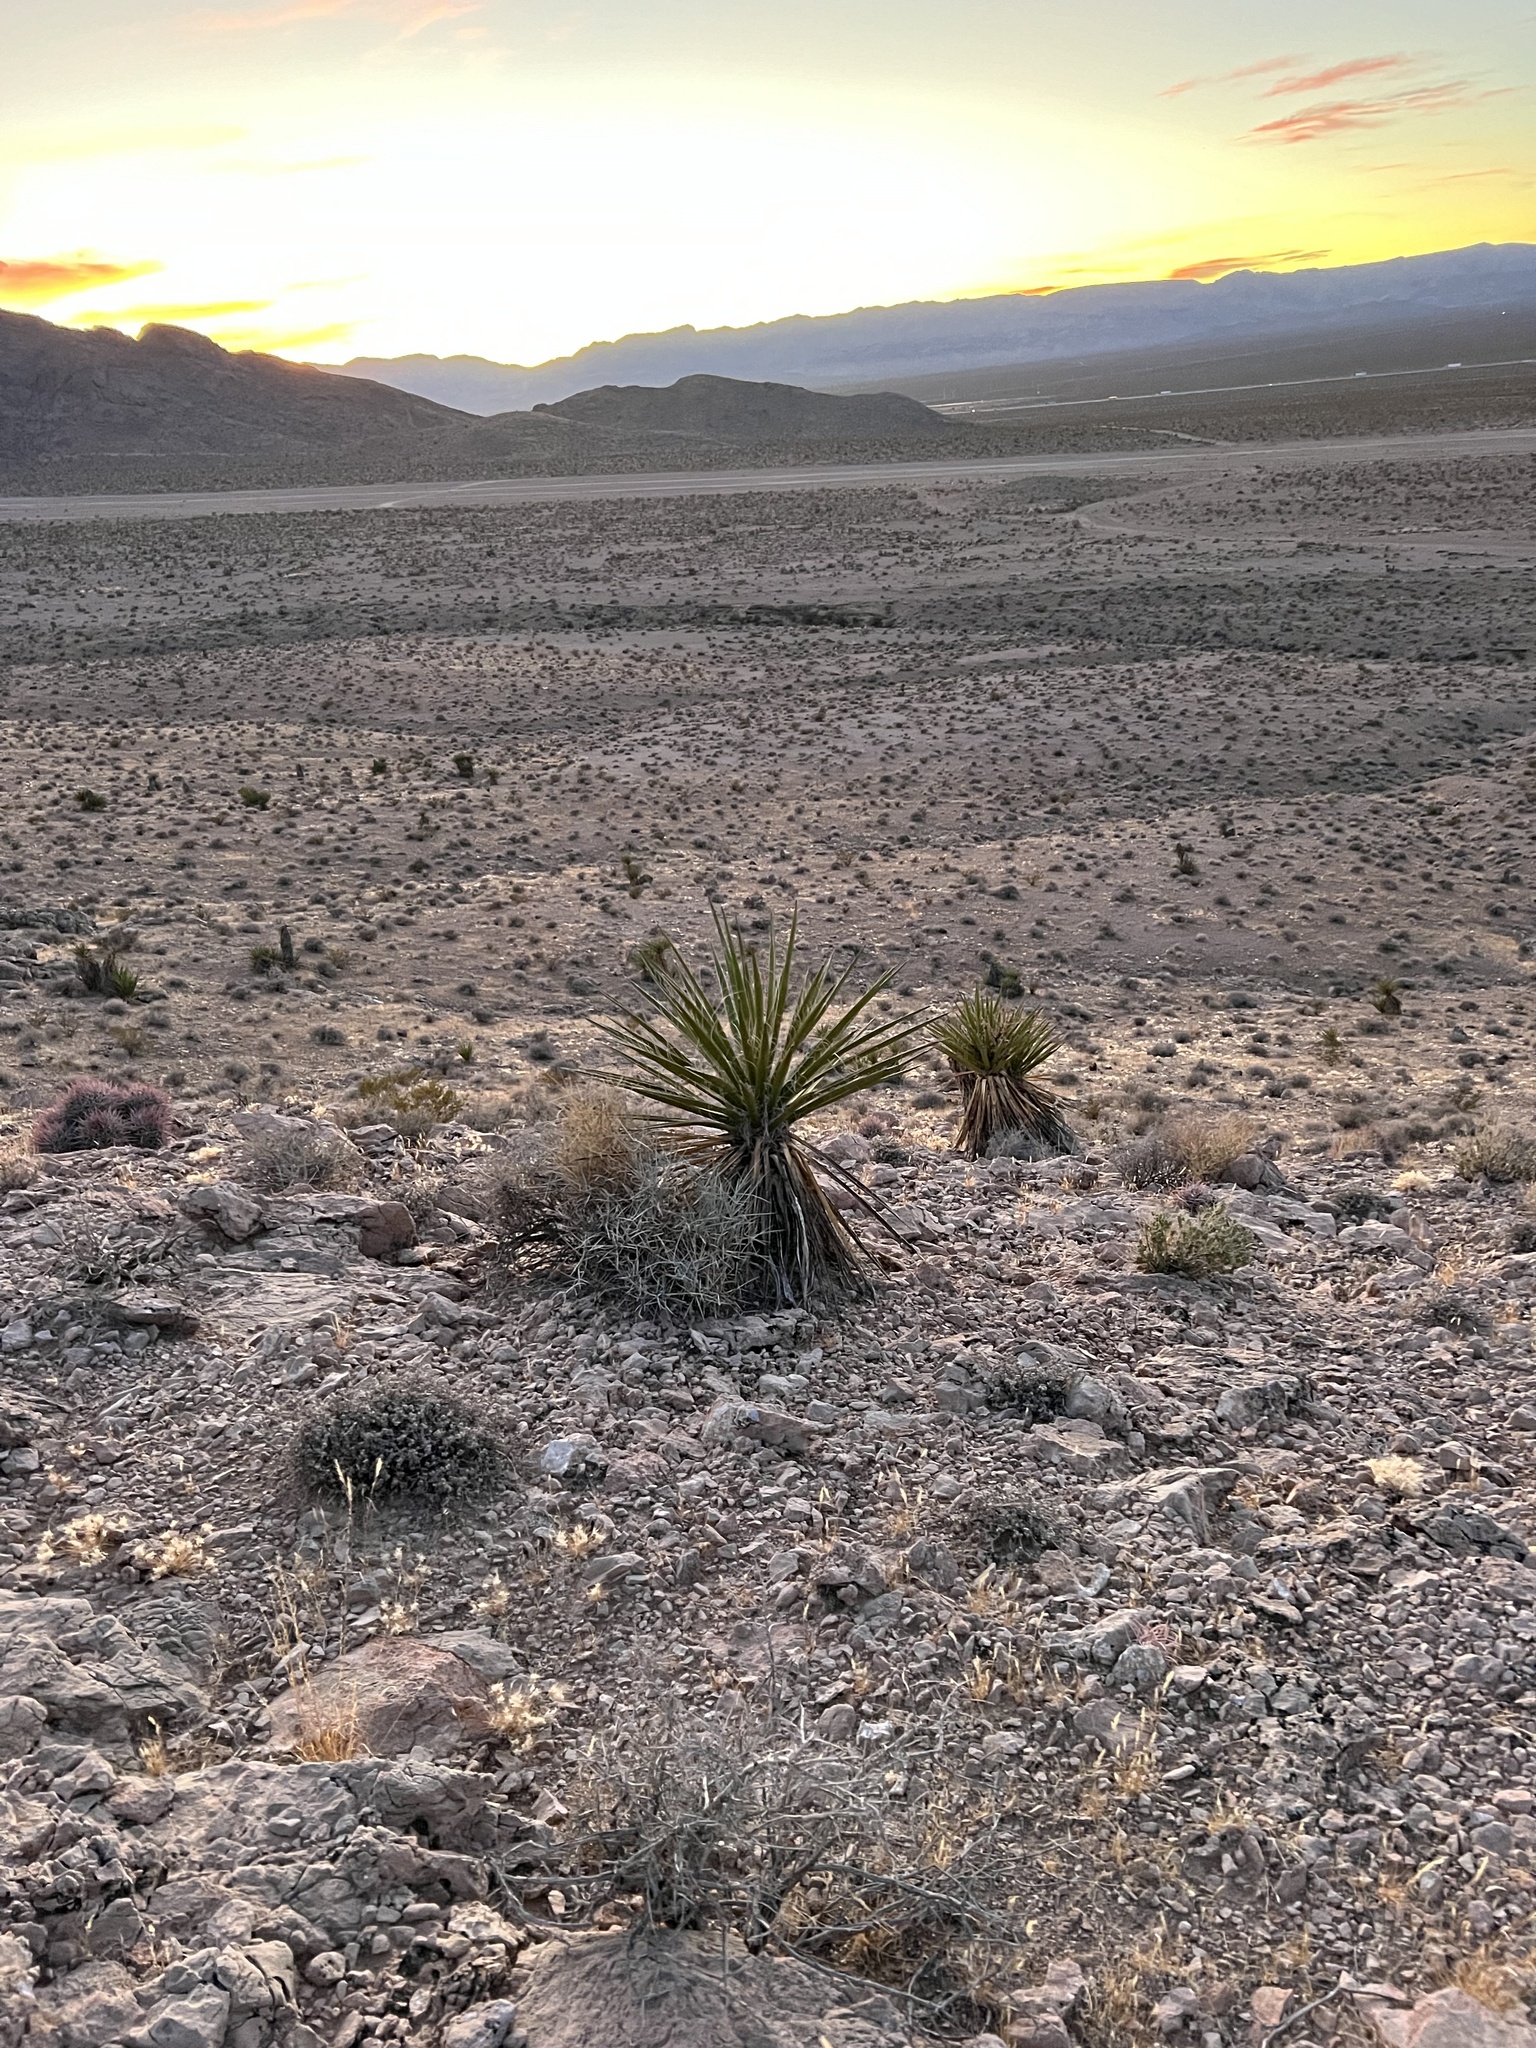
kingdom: Plantae
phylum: Tracheophyta
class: Liliopsida
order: Asparagales
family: Asparagaceae
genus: Yucca
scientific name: Yucca schidigera
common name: Mojave yucca
